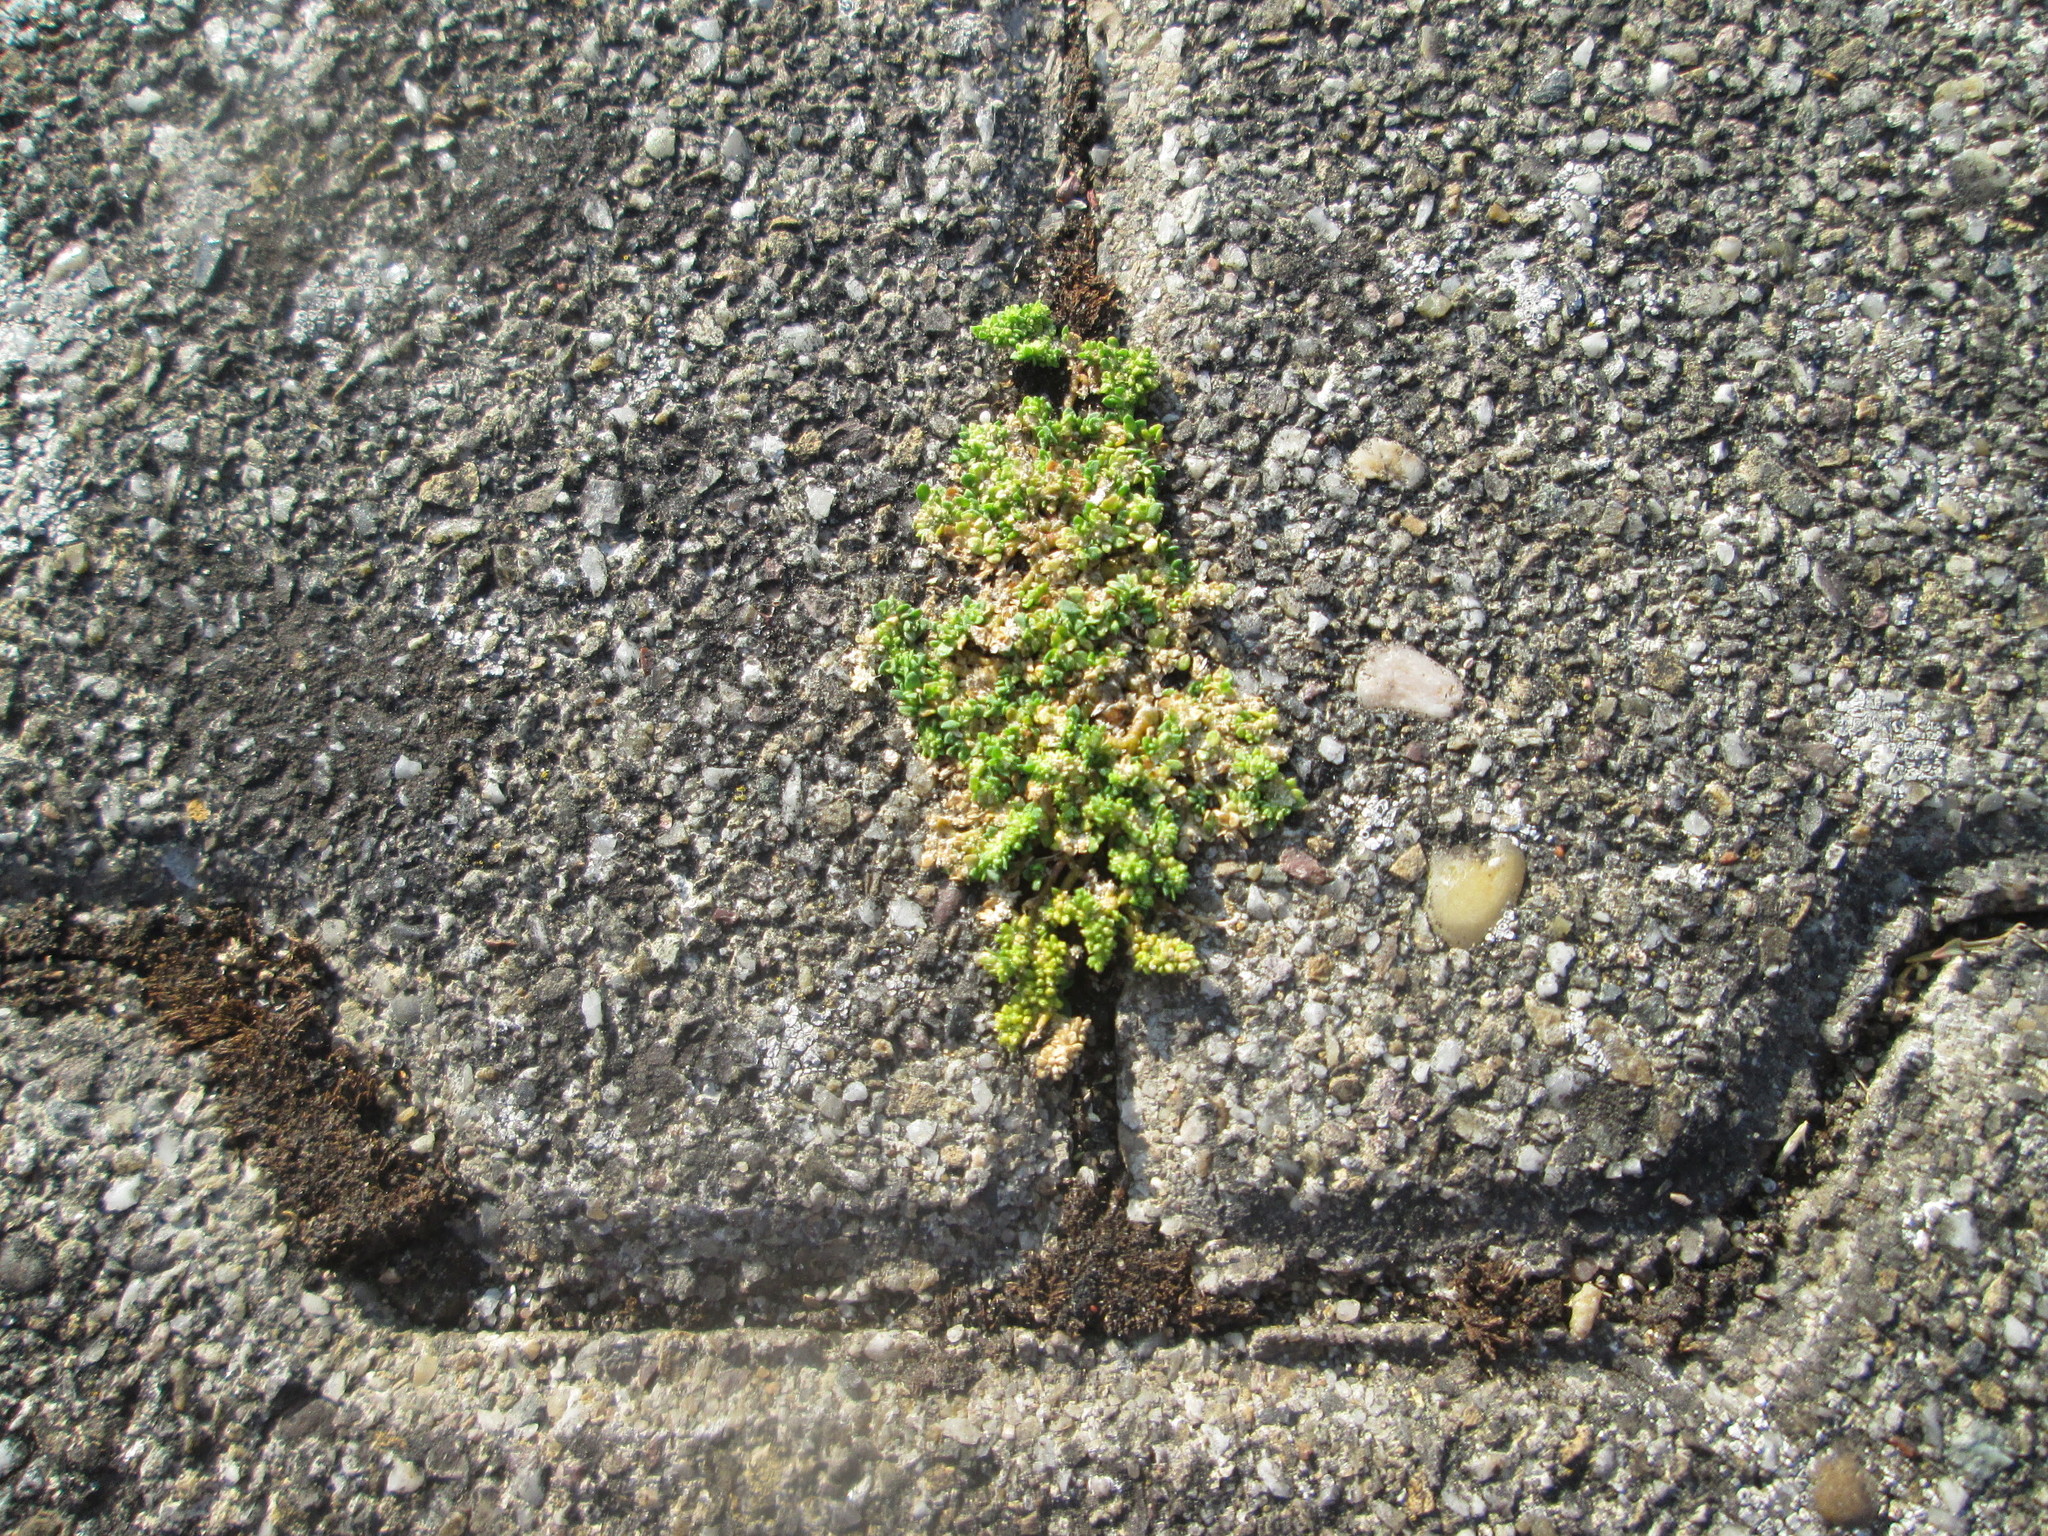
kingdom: Plantae
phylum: Tracheophyta
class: Magnoliopsida
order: Caryophyllales
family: Caryophyllaceae
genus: Herniaria
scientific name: Herniaria glabra
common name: Smooth rupturewort
